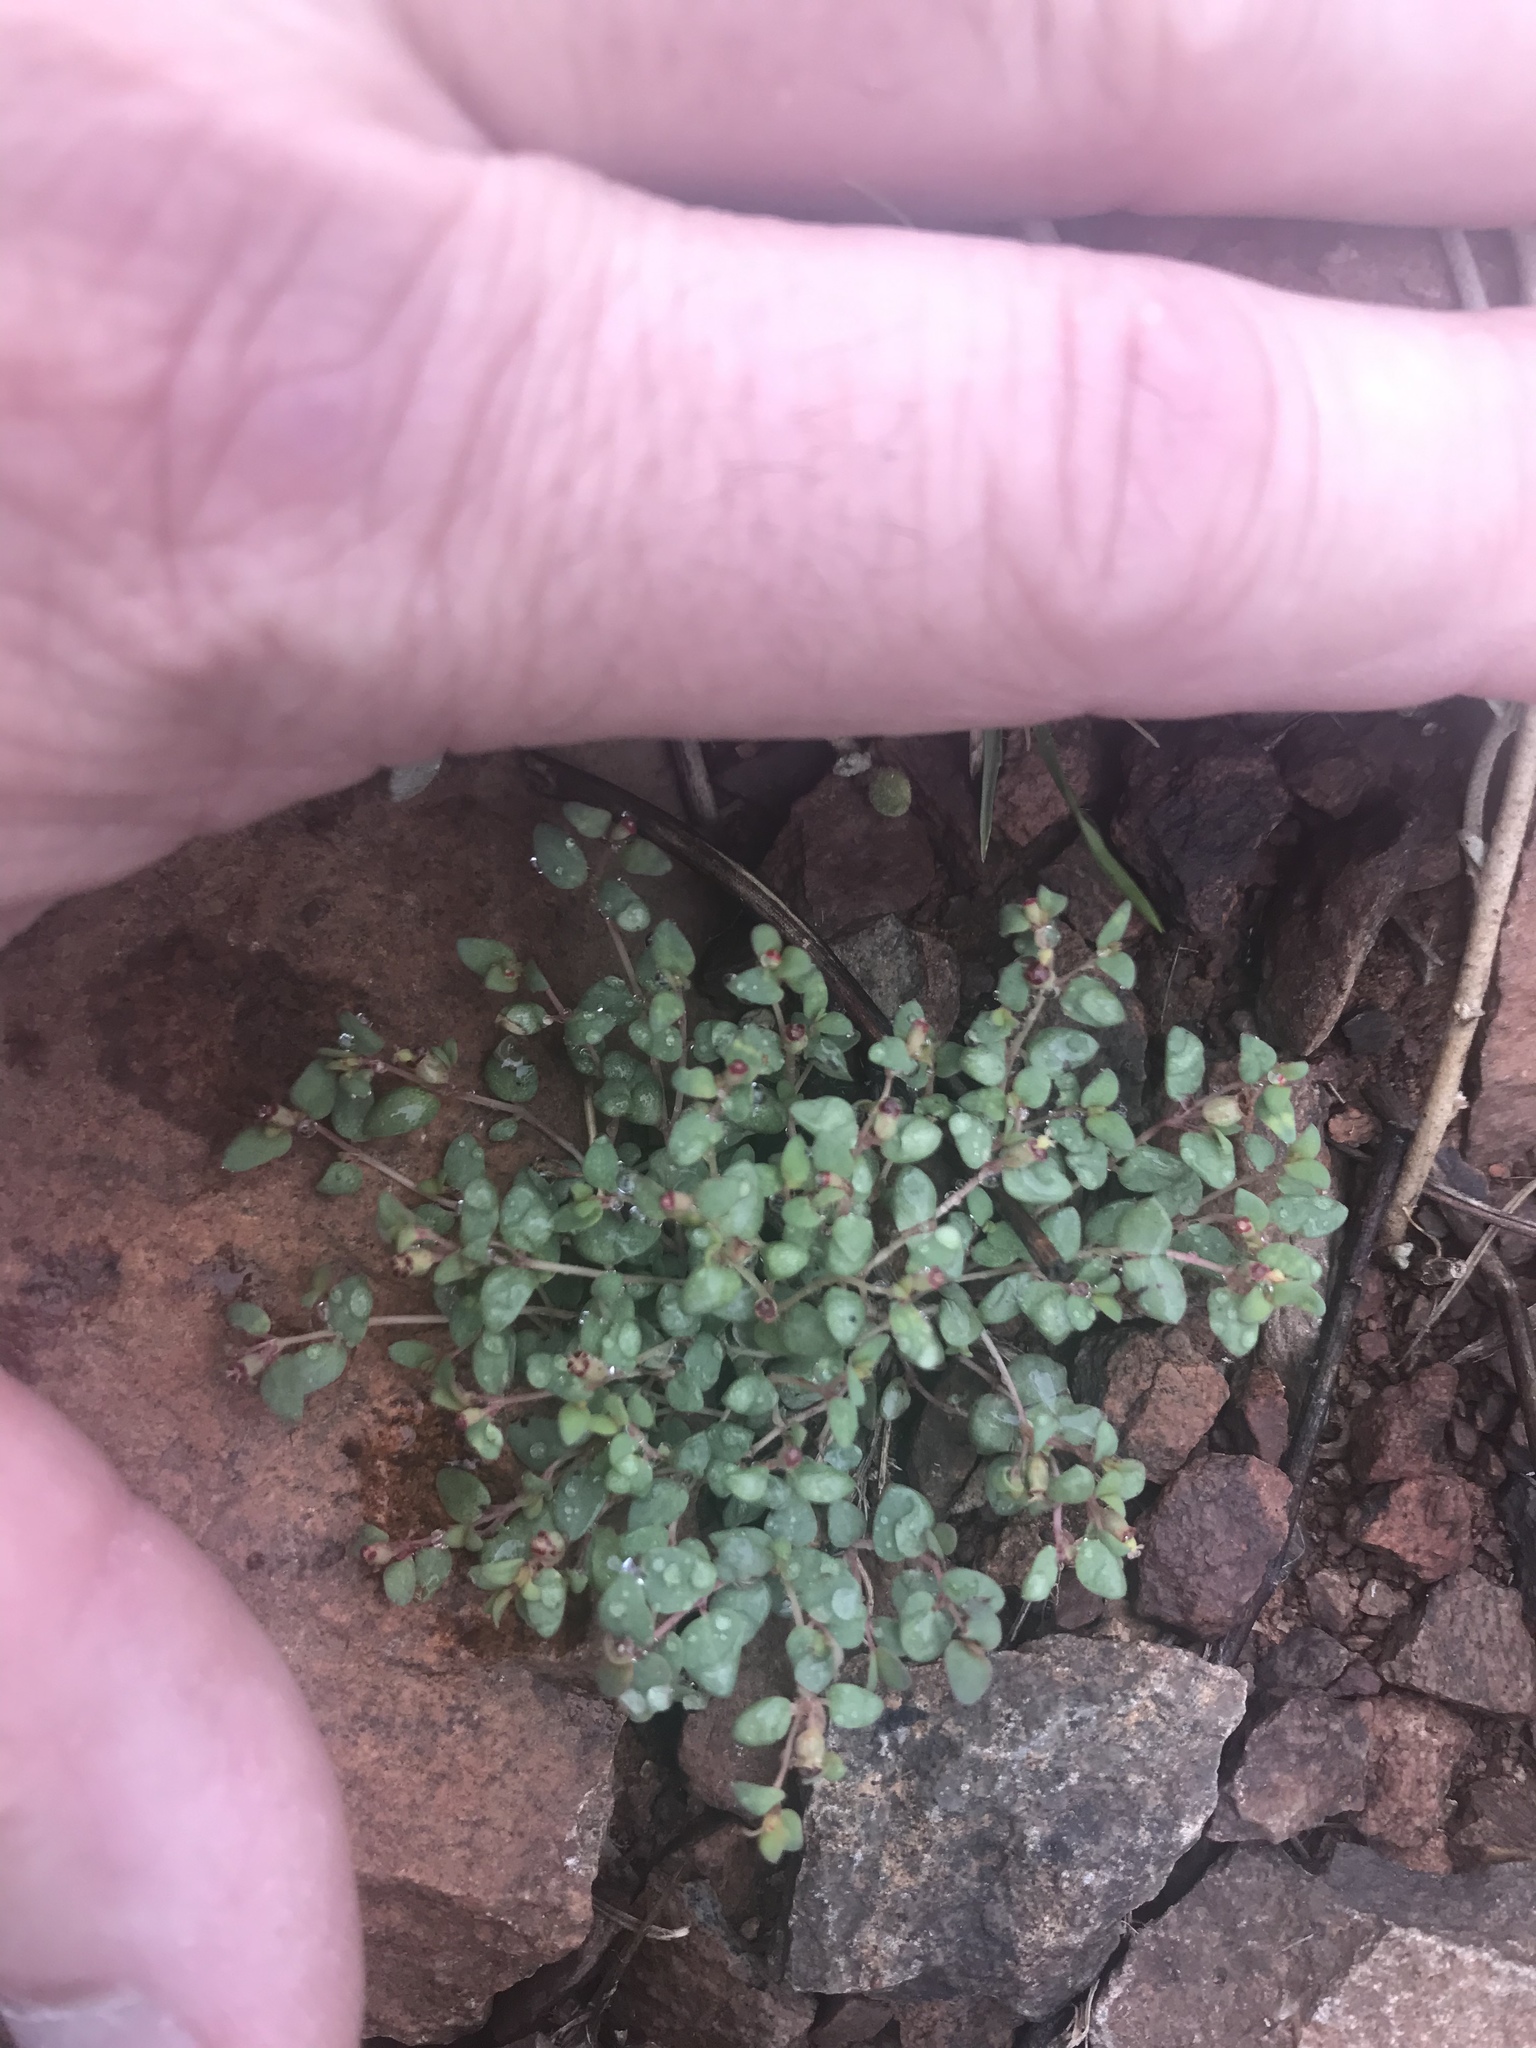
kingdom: Plantae
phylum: Tracheophyta
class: Magnoliopsida
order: Malpighiales
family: Euphorbiaceae
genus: Euphorbia
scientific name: Euphorbia fendleri
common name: Fendler's euphorbia
